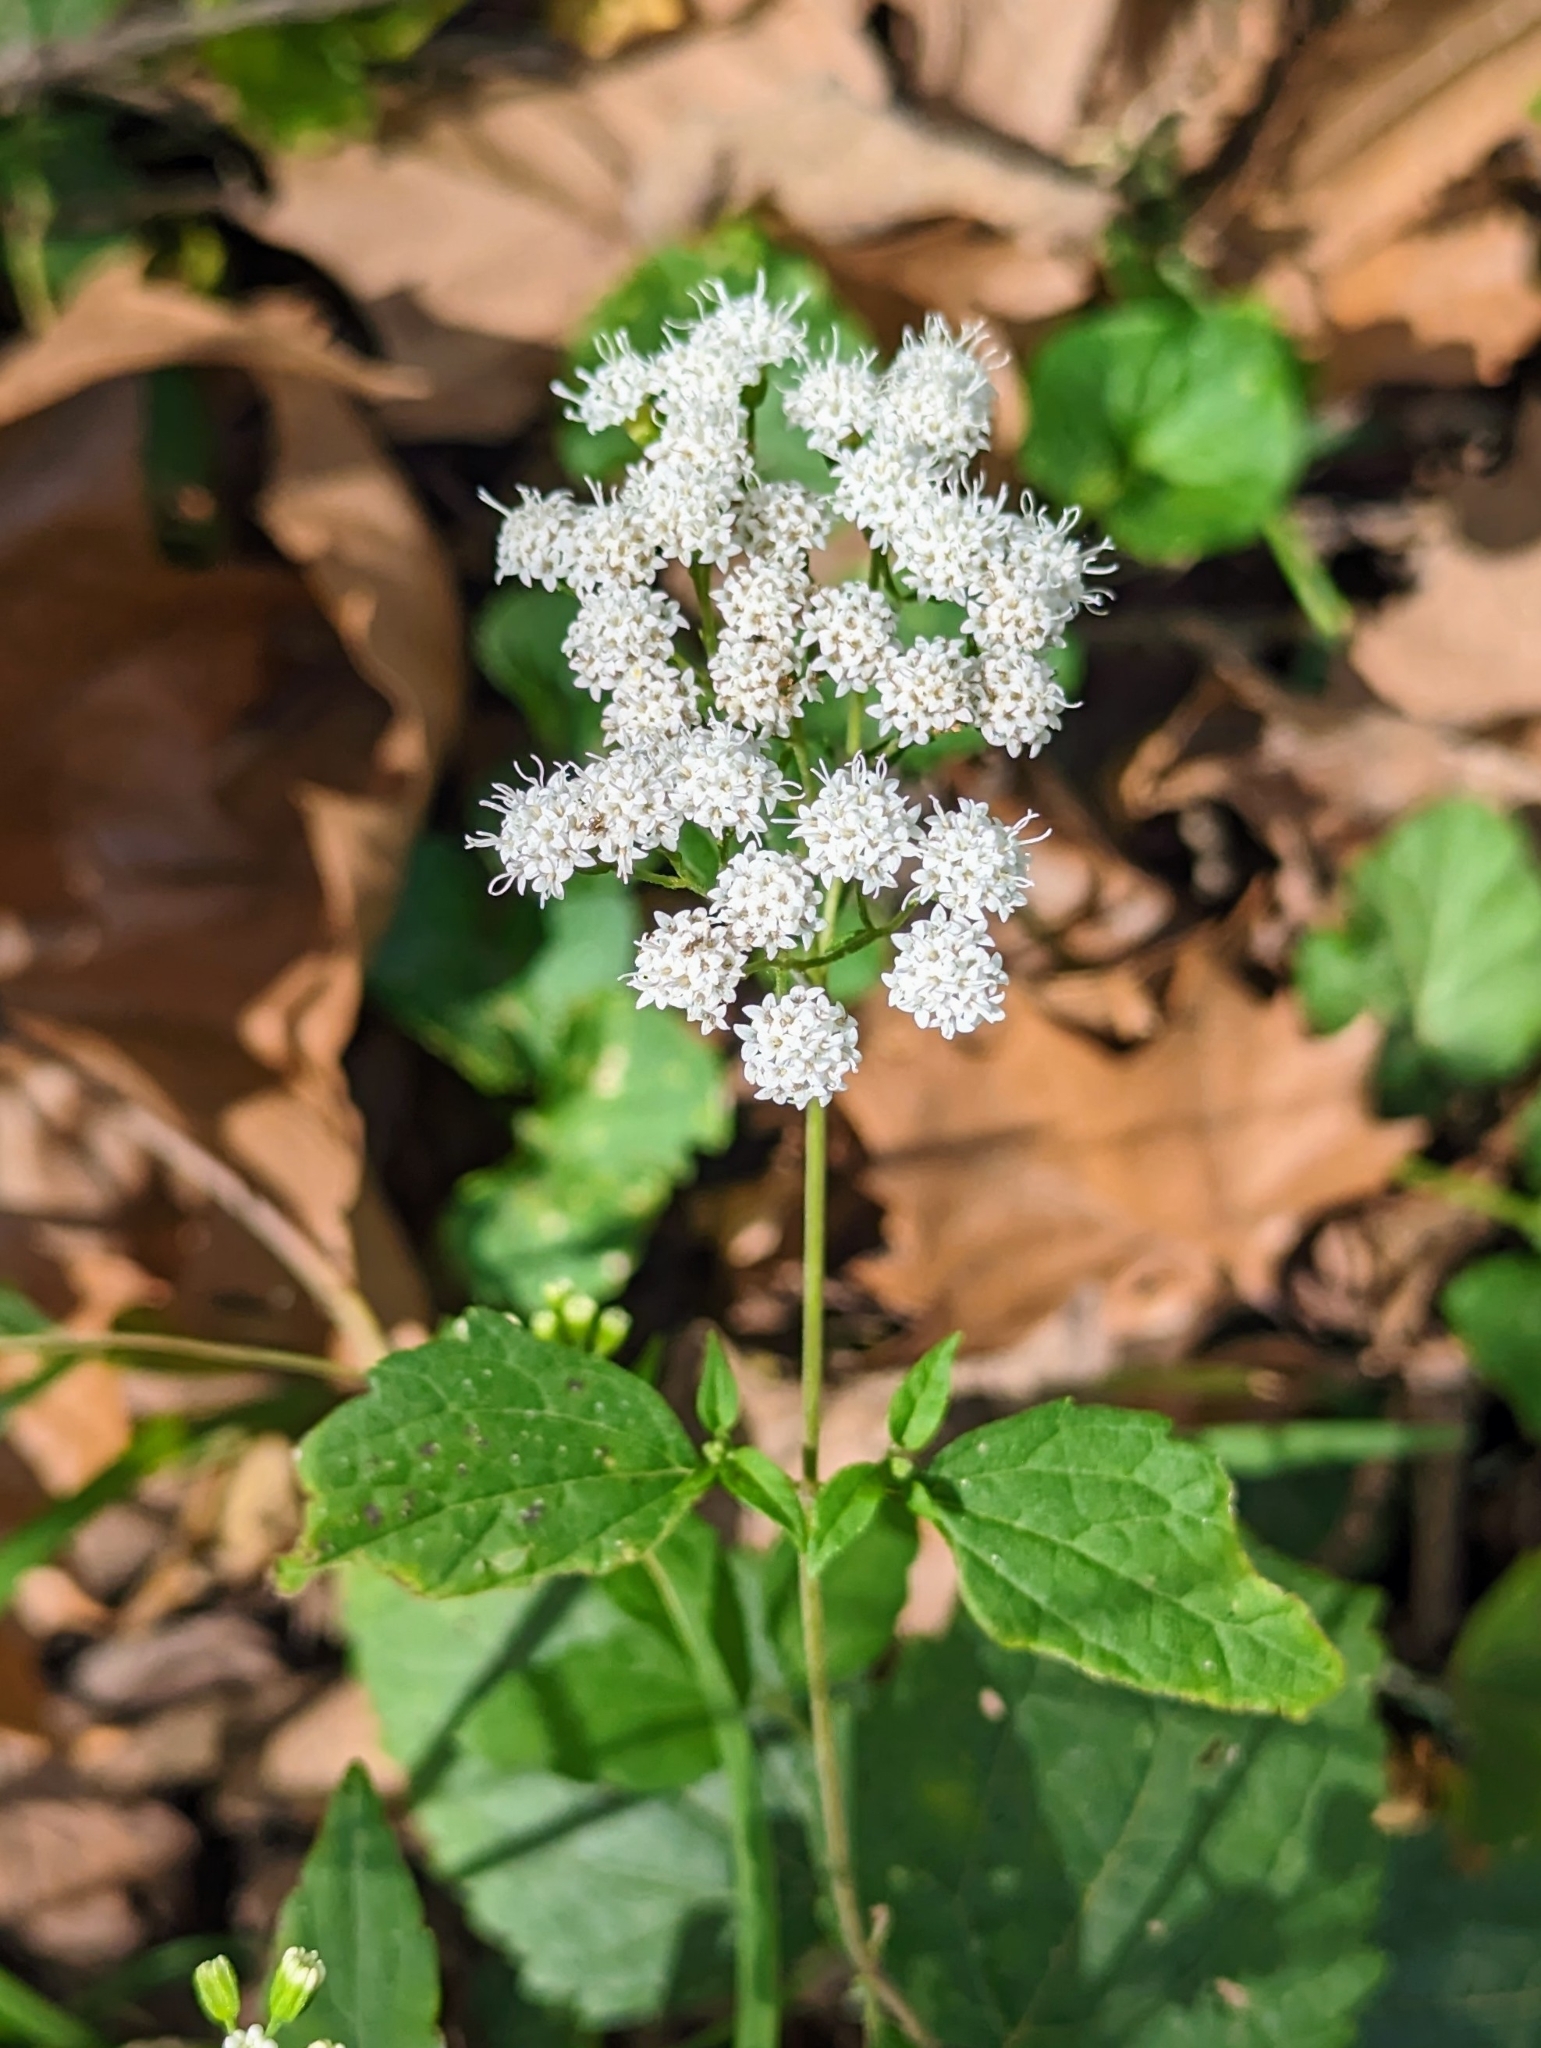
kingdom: Plantae
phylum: Tracheophyta
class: Magnoliopsida
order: Asterales
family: Asteraceae
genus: Ageratina
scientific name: Ageratina altissima
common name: White snakeroot
